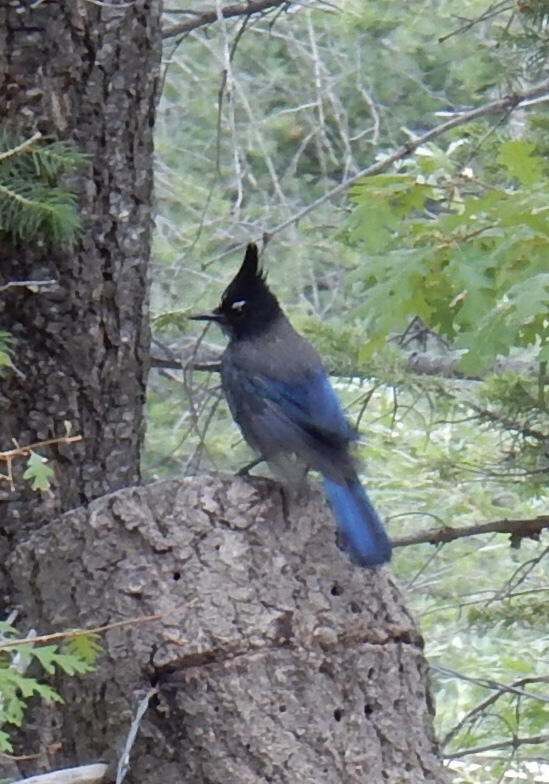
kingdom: Animalia
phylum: Chordata
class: Aves
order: Passeriformes
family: Corvidae
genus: Cyanocitta
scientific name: Cyanocitta stelleri
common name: Steller's jay
